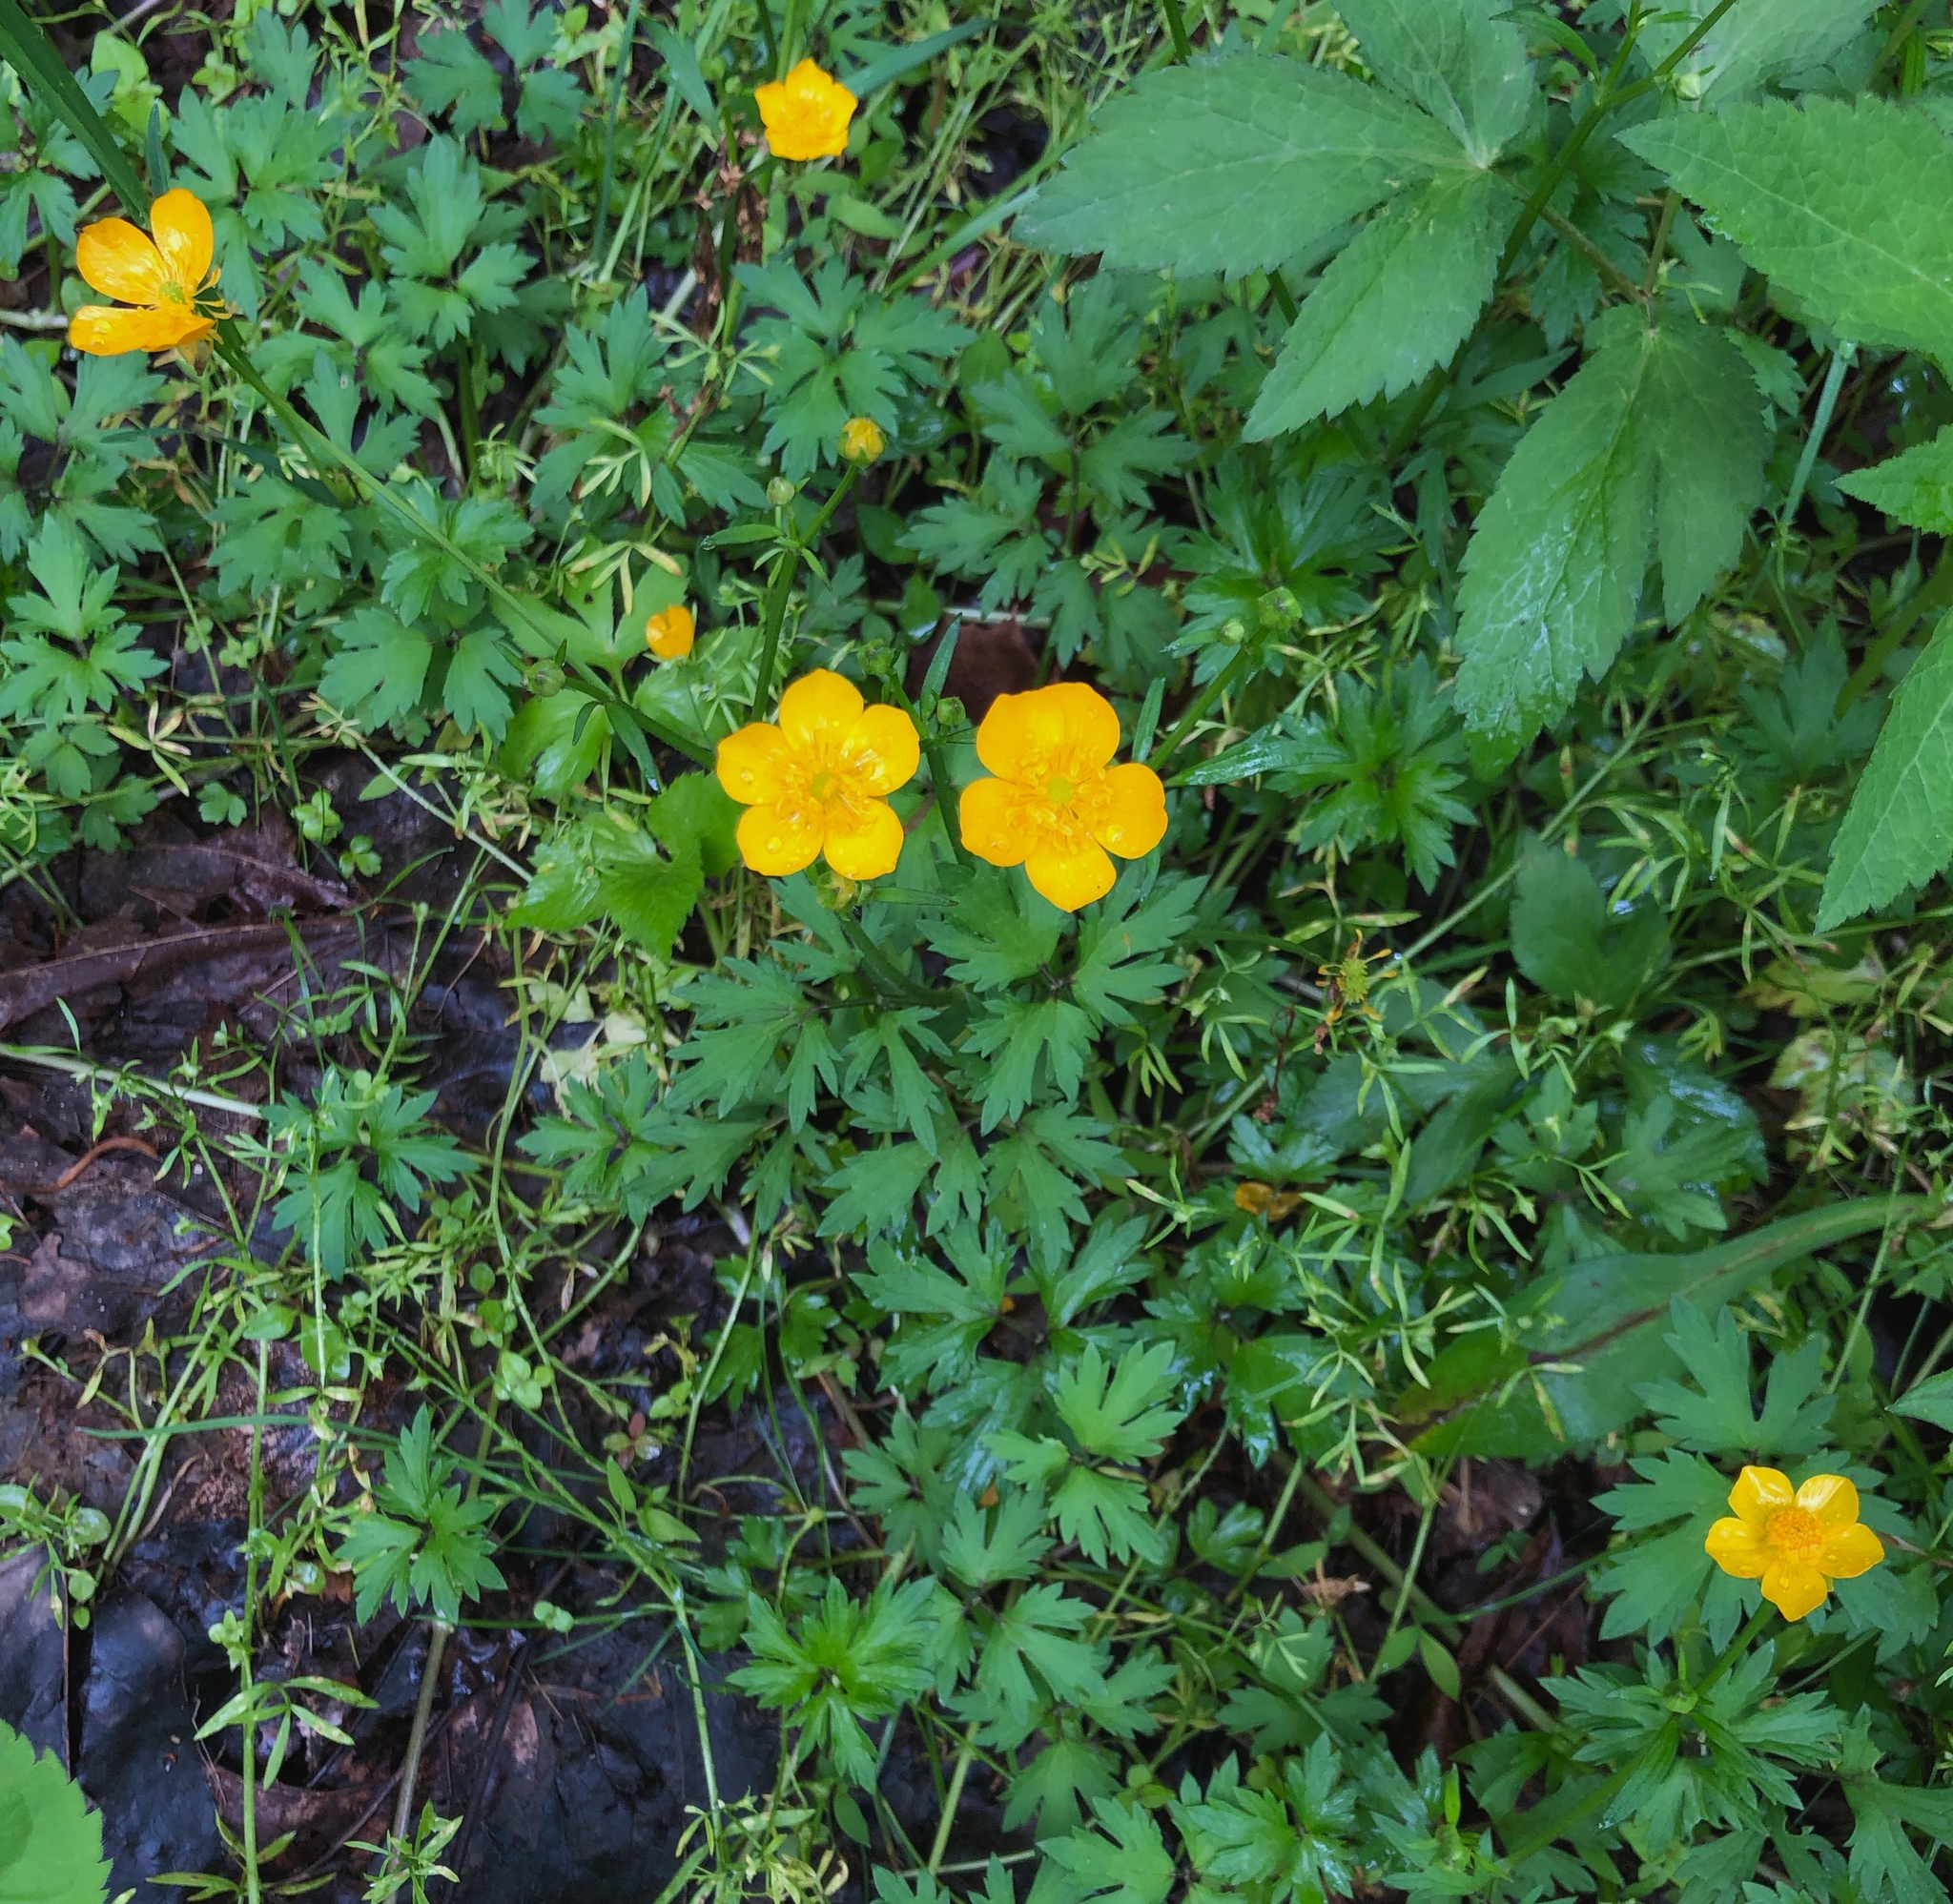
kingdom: Plantae
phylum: Tracheophyta
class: Magnoliopsida
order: Ranunculales
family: Ranunculaceae
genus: Ranunculus
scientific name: Ranunculus repens
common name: Creeping buttercup
